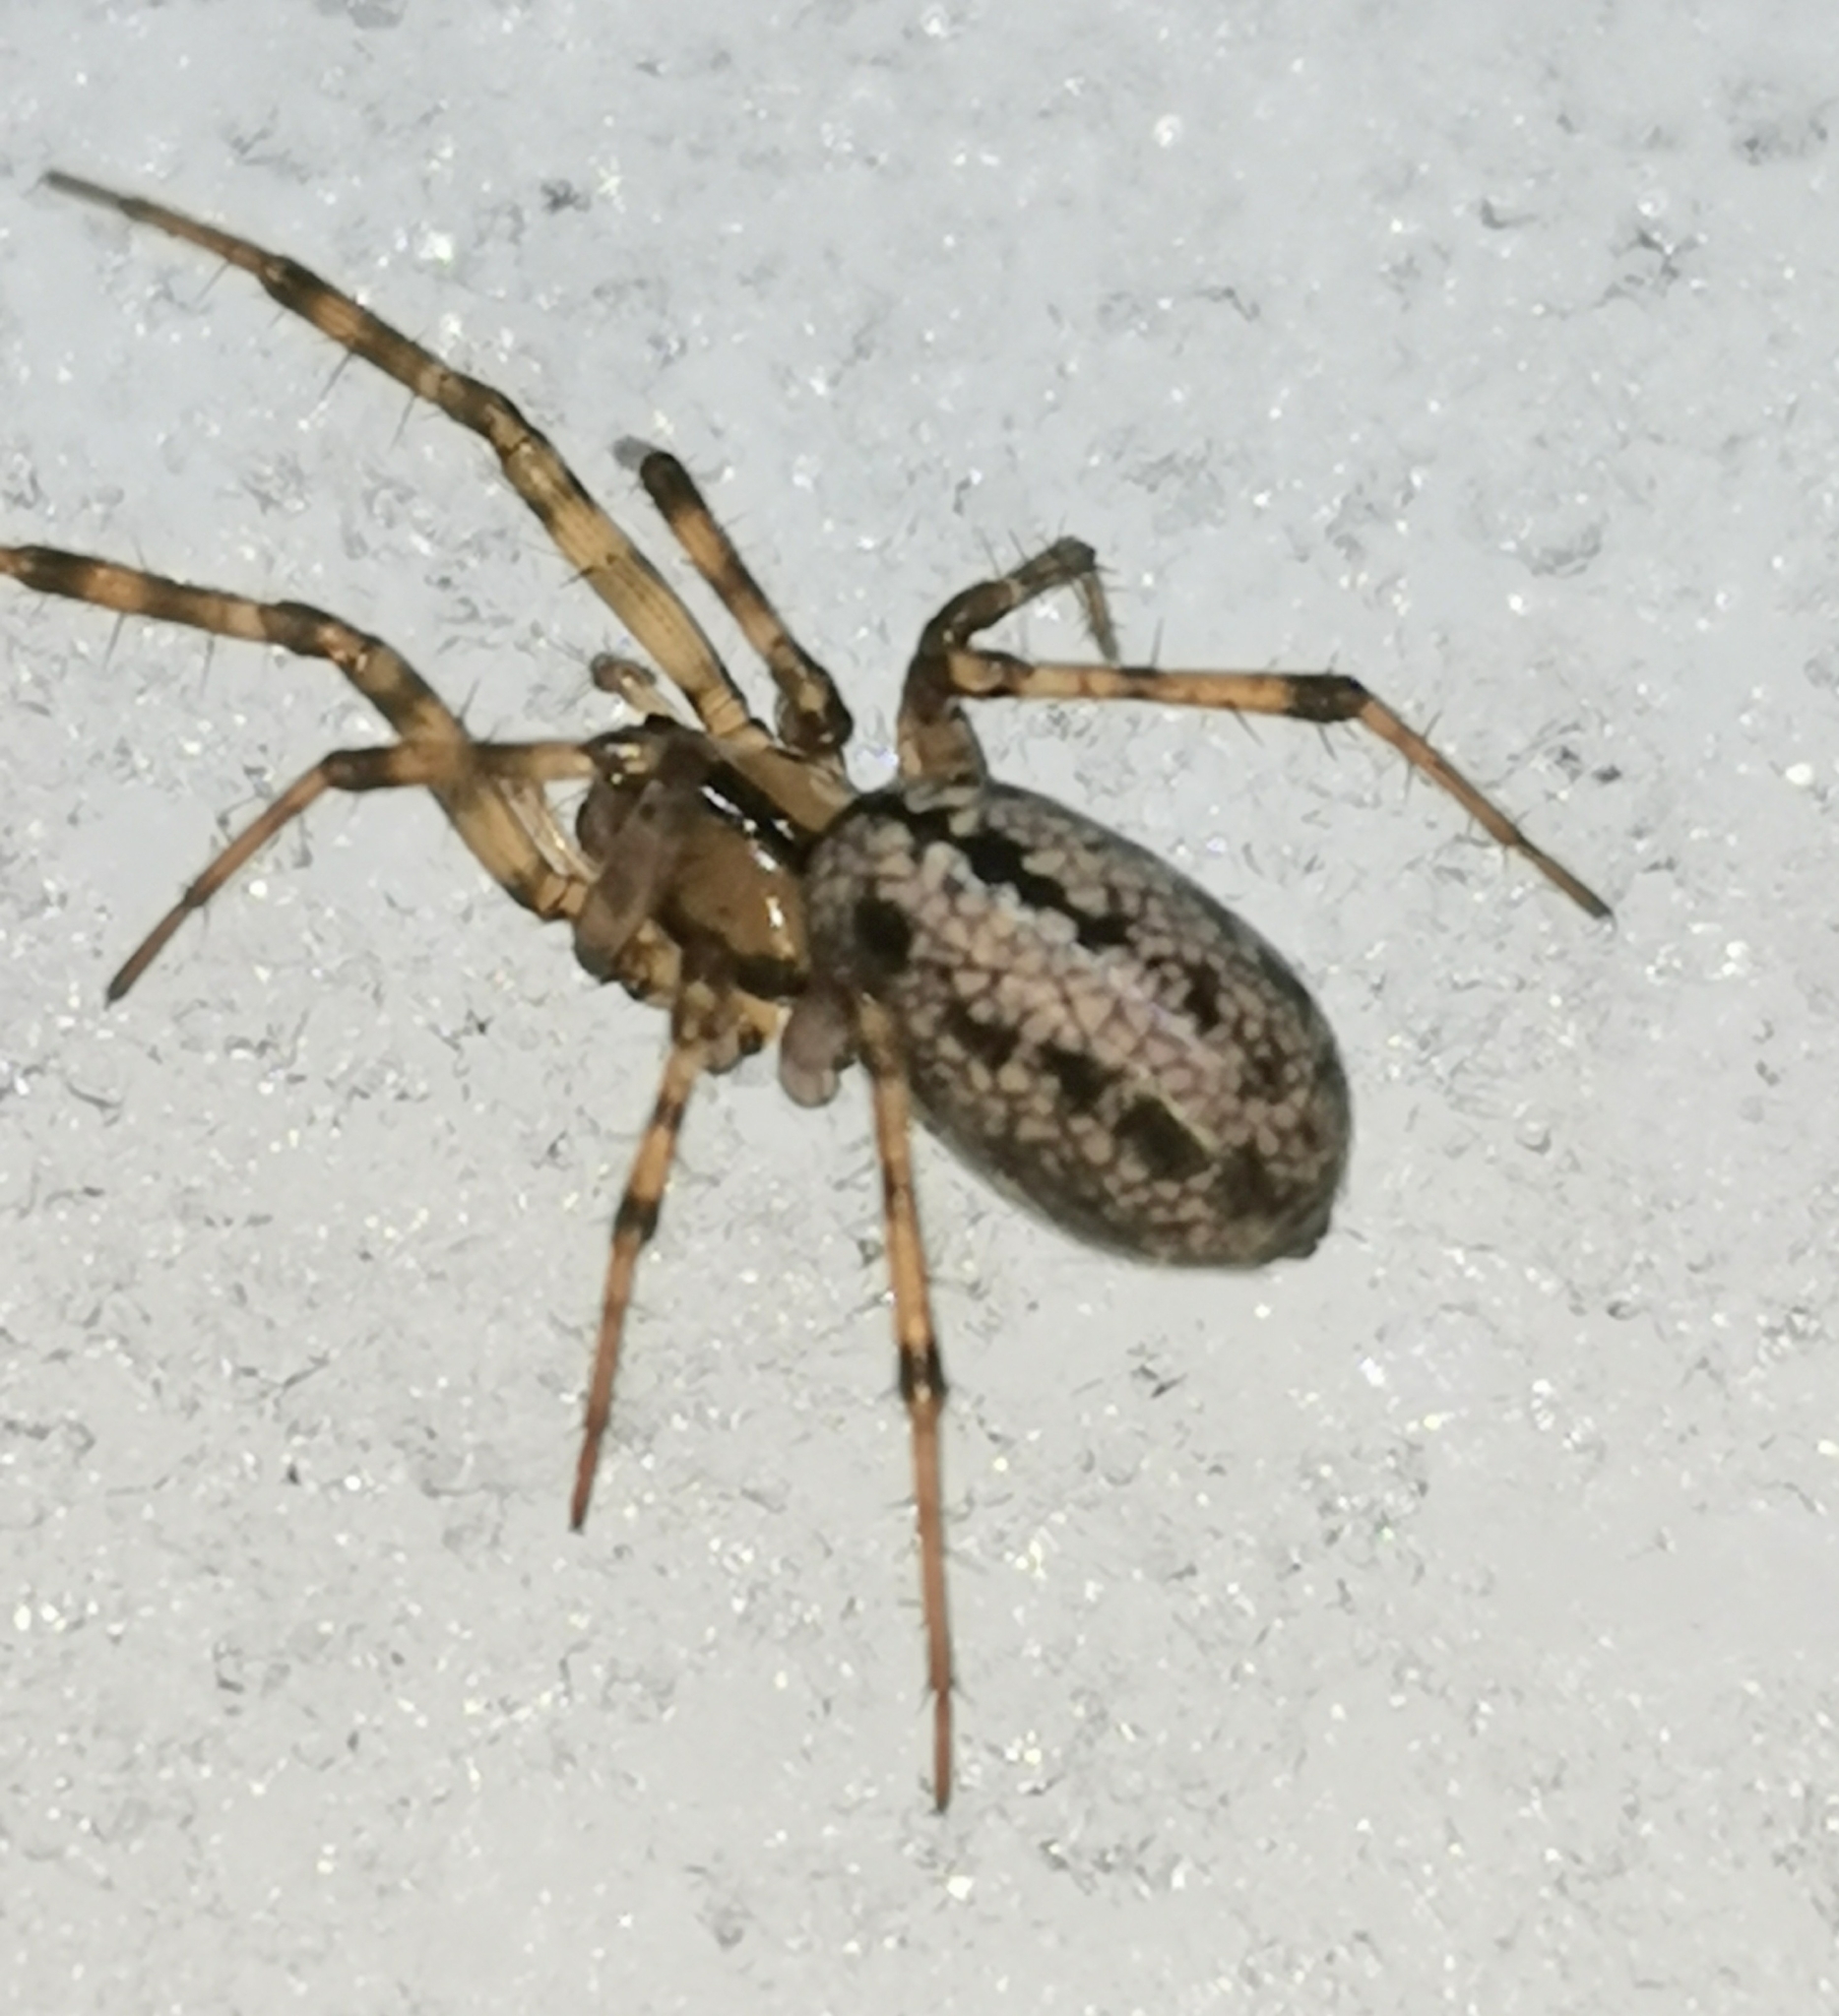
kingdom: Animalia
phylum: Arthropoda
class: Arachnida
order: Araneae
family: Linyphiidae
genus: Stemonyphantes
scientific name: Stemonyphantes lineatus
